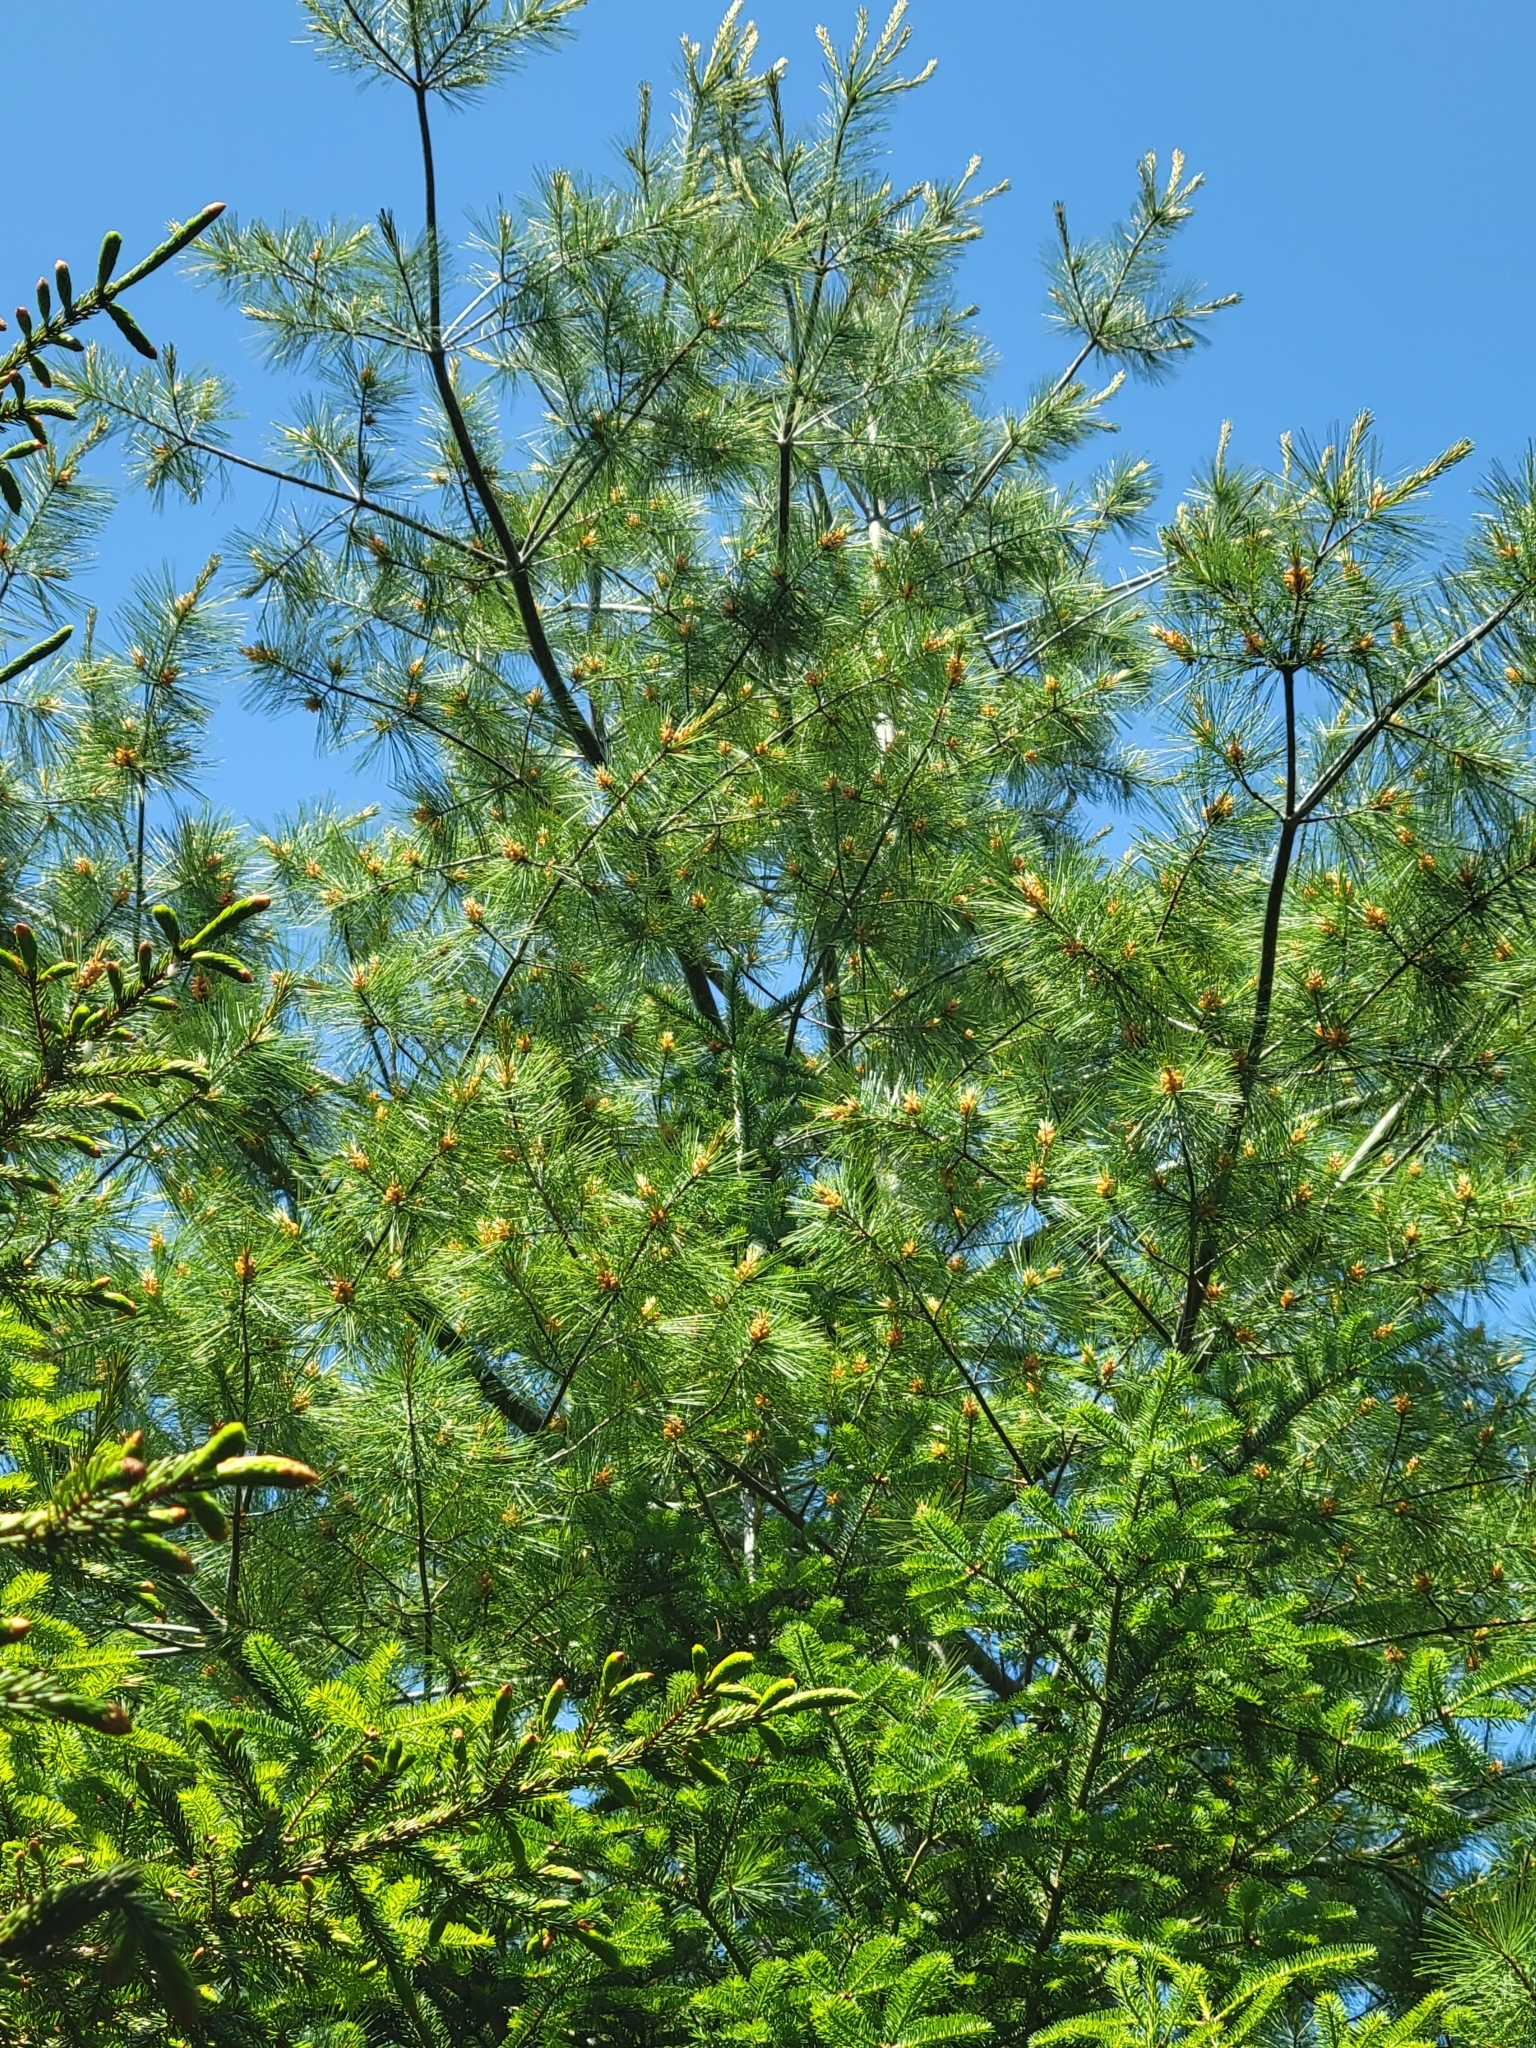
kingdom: Plantae
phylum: Tracheophyta
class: Pinopsida
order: Pinales
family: Pinaceae
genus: Pinus
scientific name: Pinus strobus
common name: Weymouth pine
